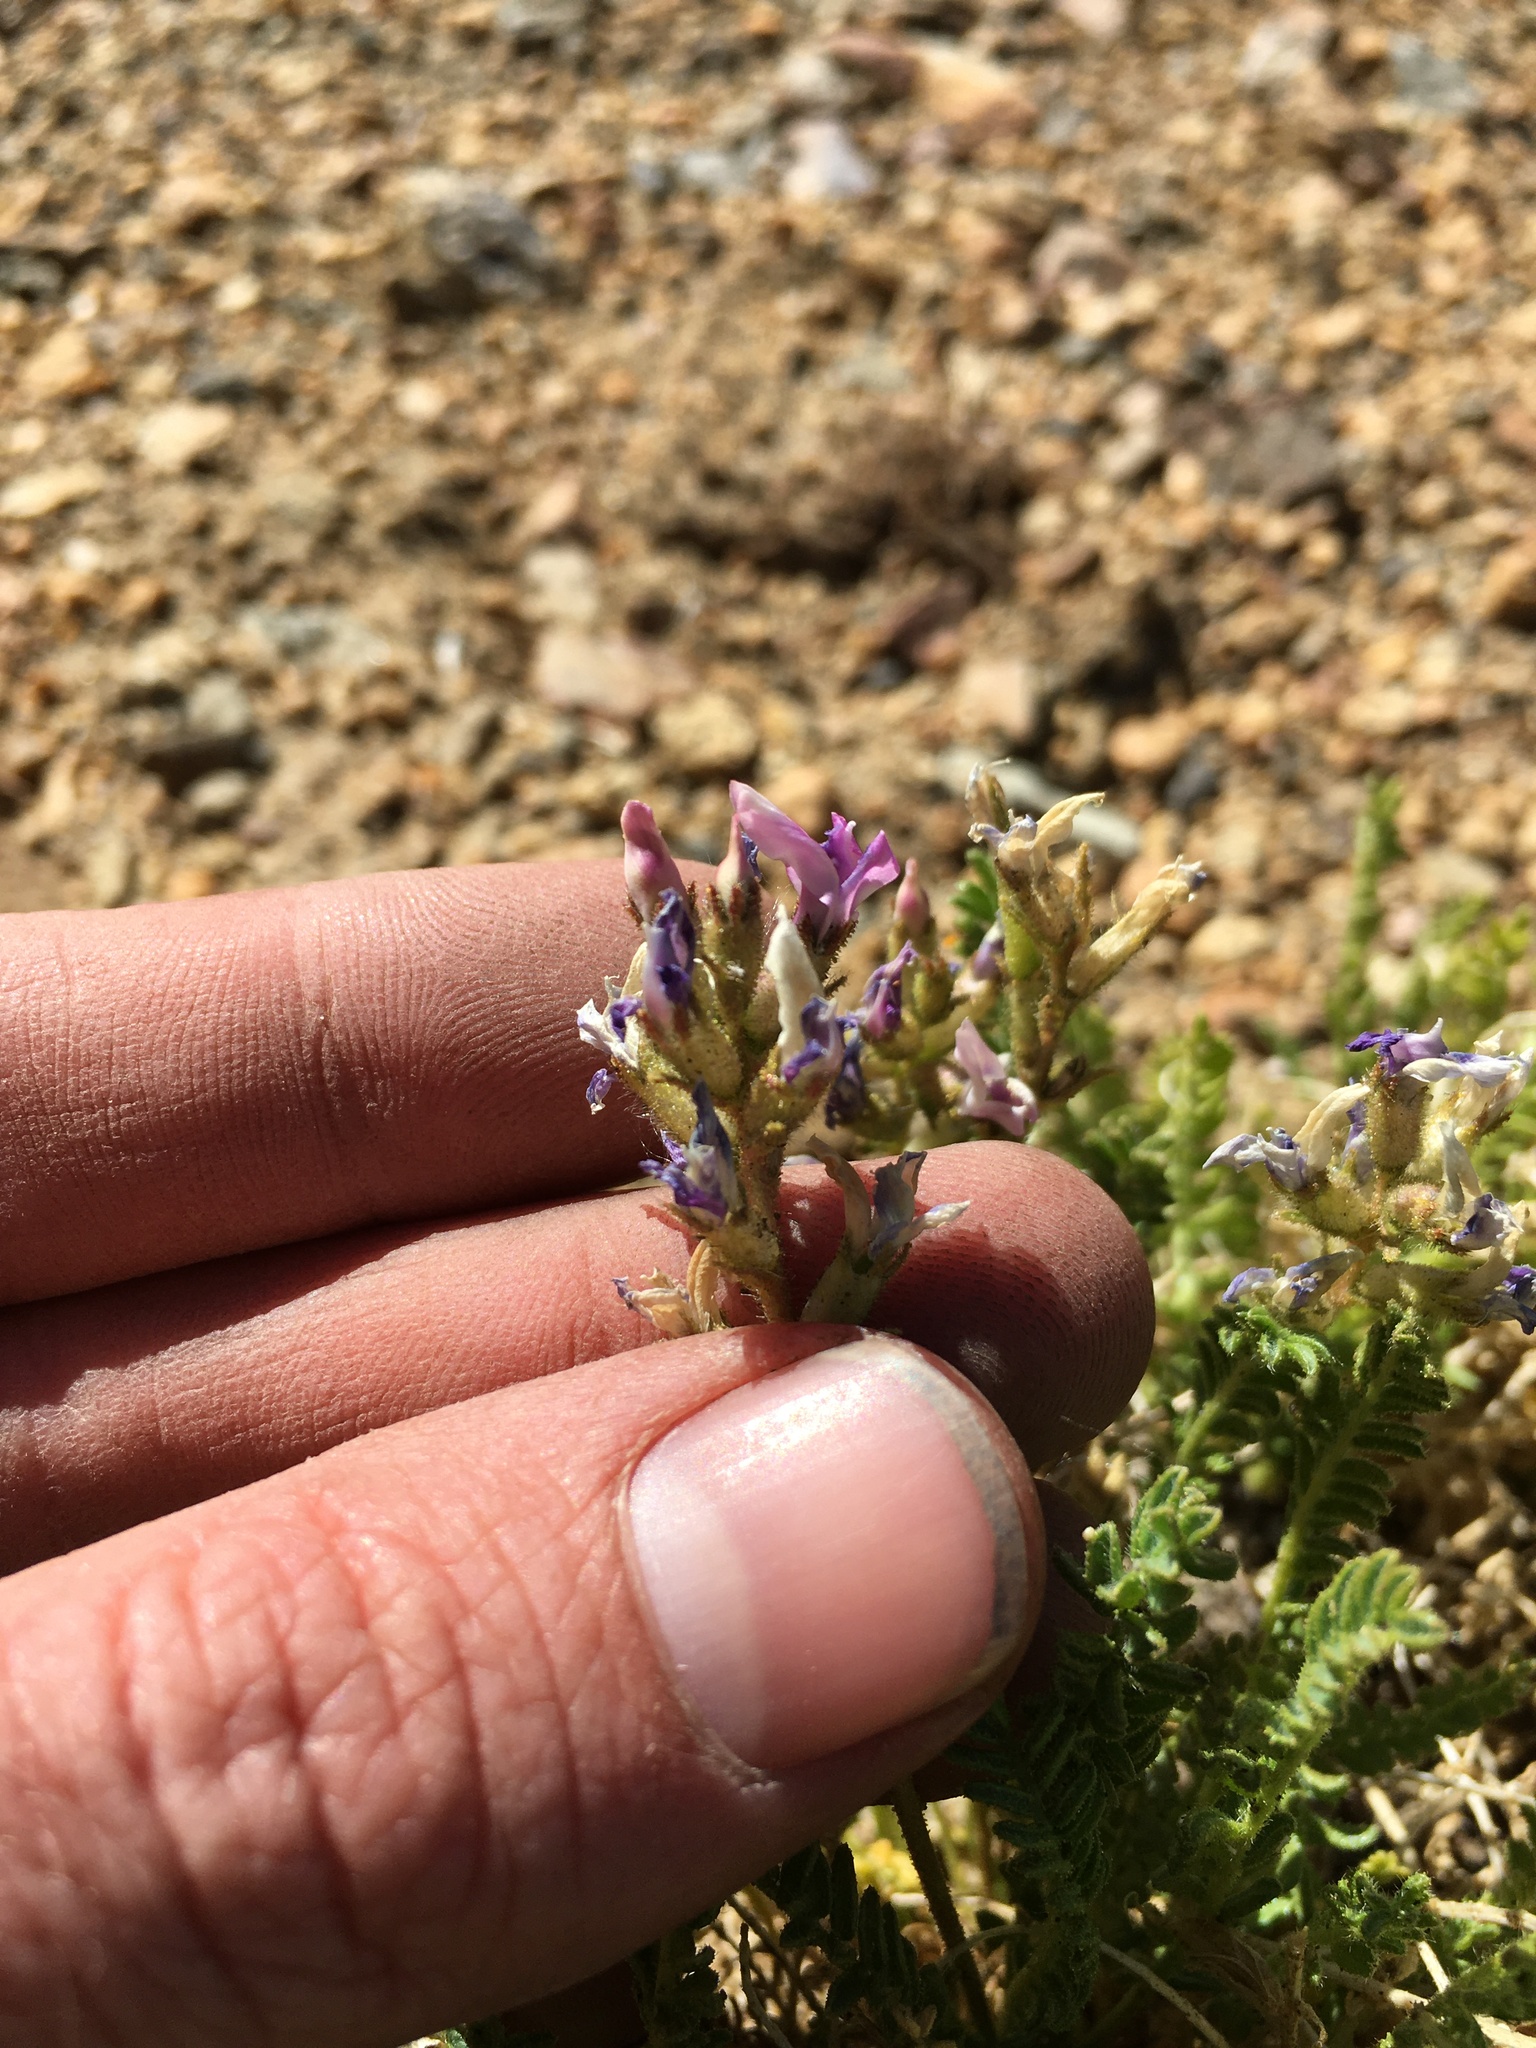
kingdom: Plantae
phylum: Tracheophyta
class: Magnoliopsida
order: Fabales
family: Fabaceae
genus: Oxytropis
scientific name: Oxytropis borealis
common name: Boreal locoweed
